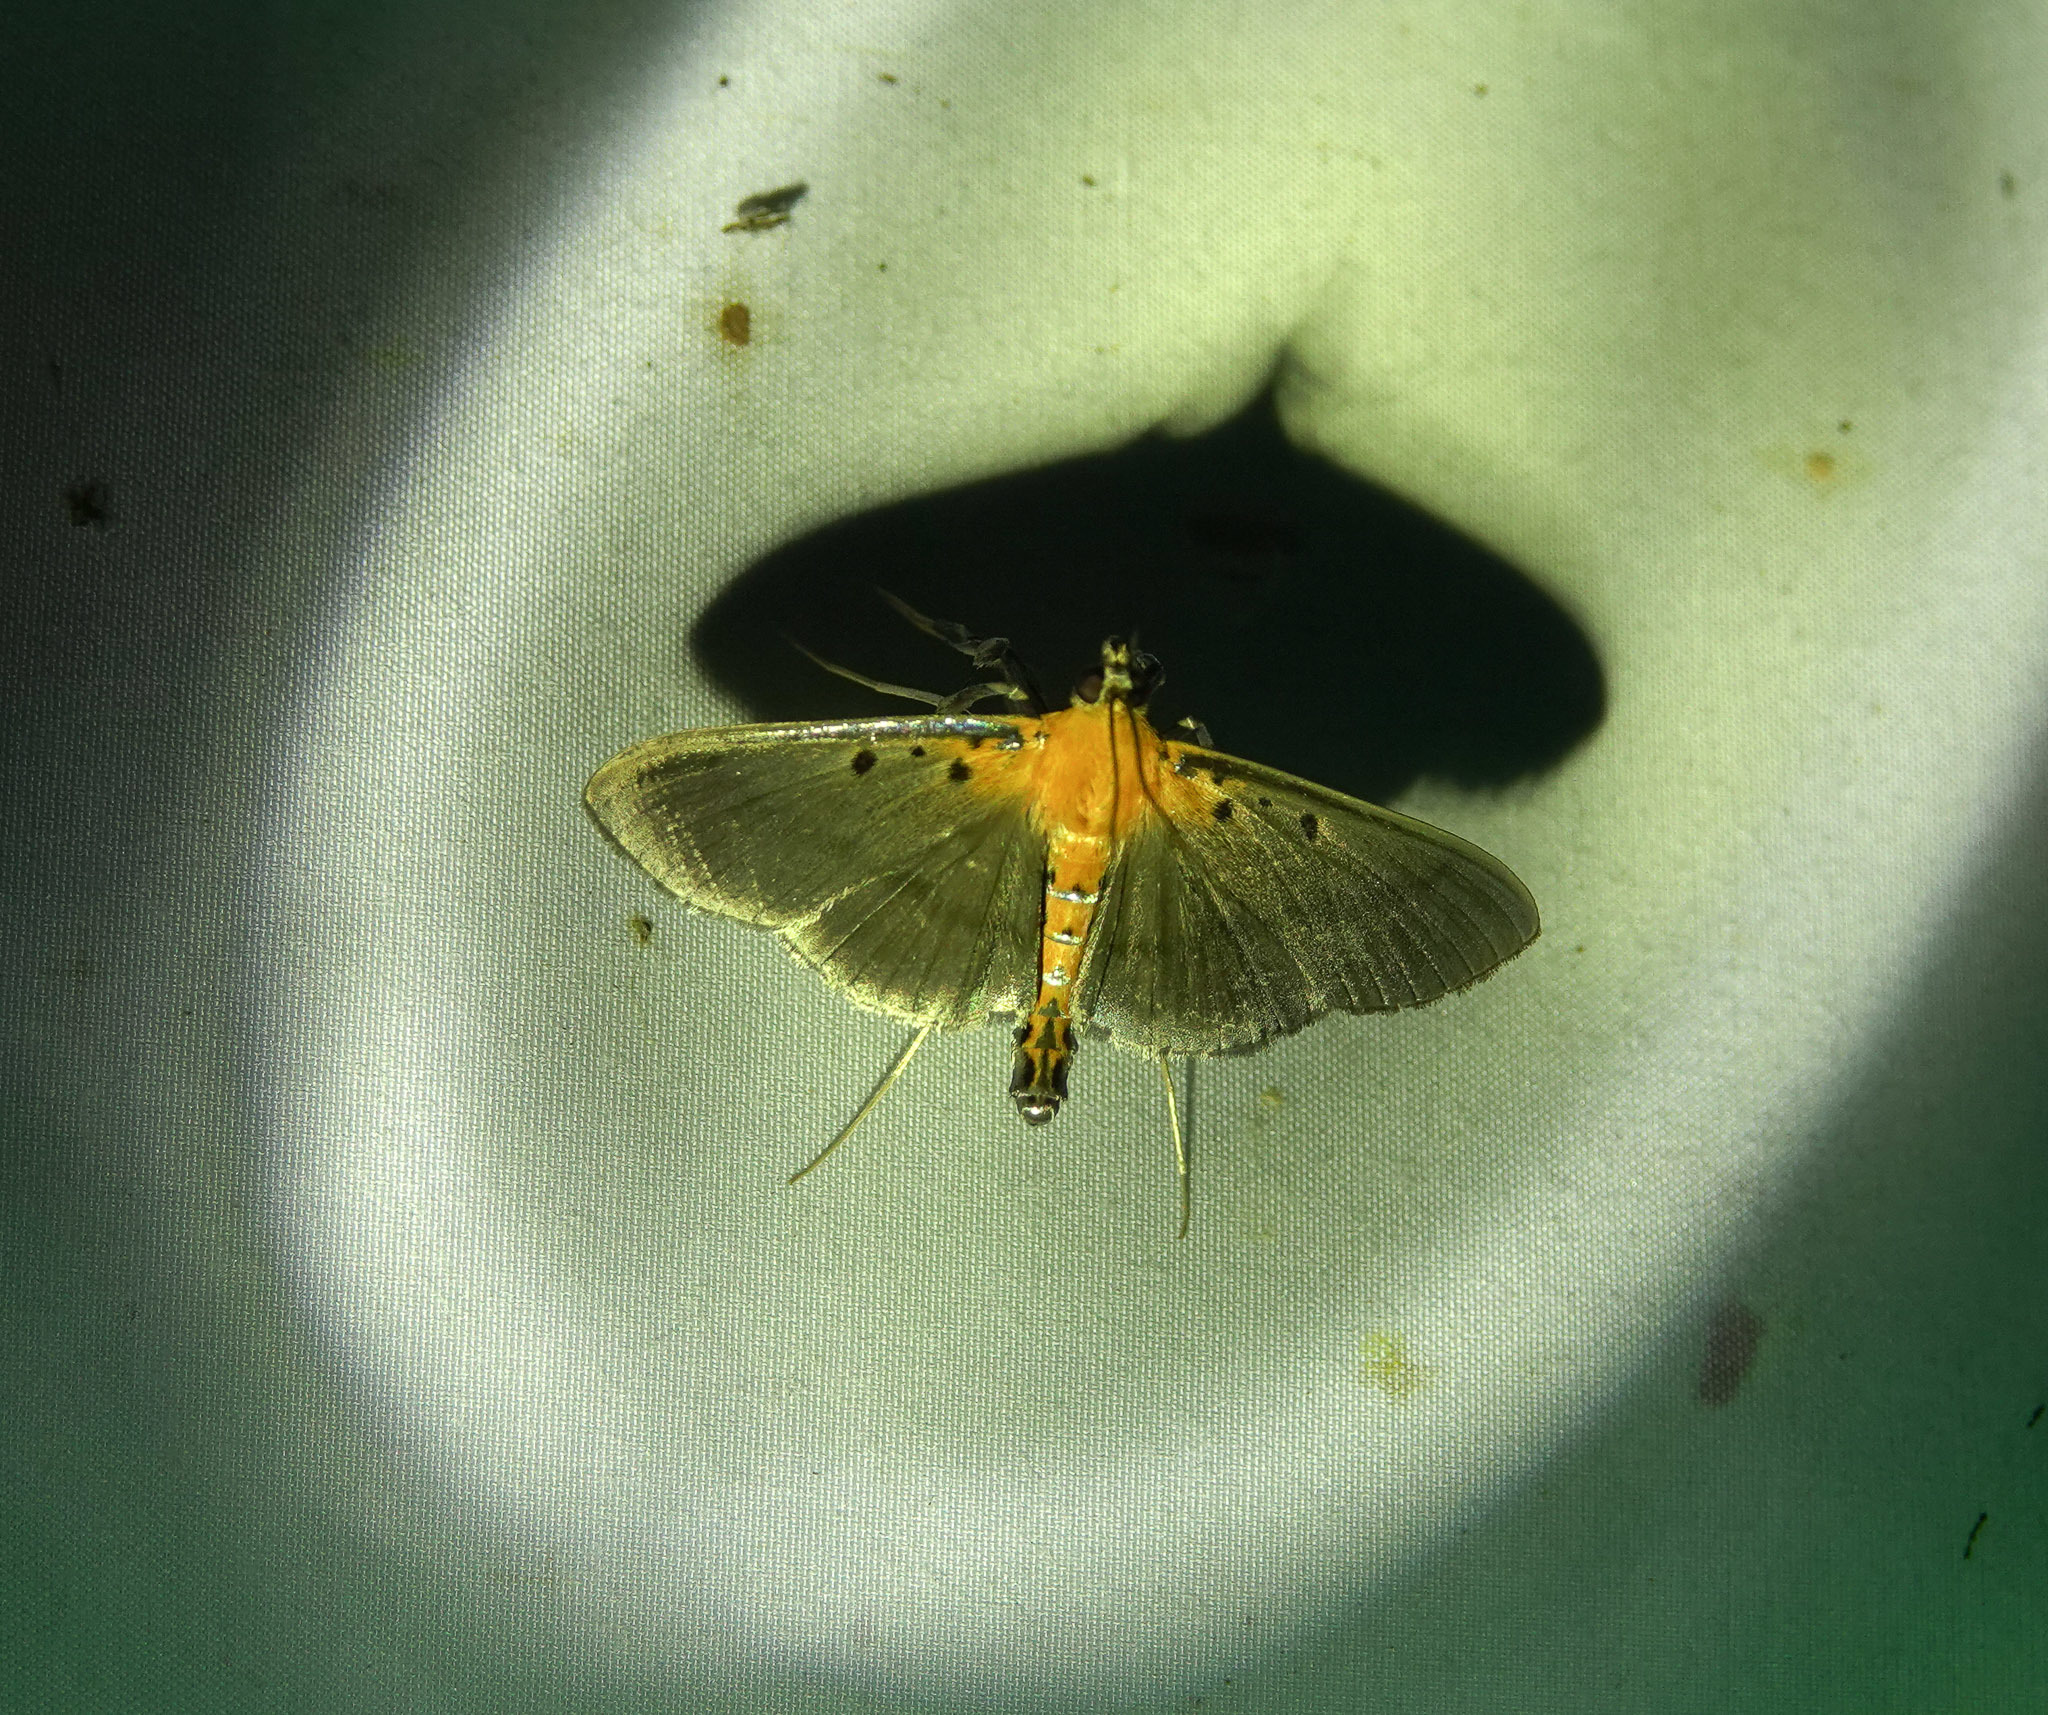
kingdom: Animalia
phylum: Arthropoda
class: Insecta
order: Lepidoptera
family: Crambidae
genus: Filodes
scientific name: Filodes fulvidorsalis
